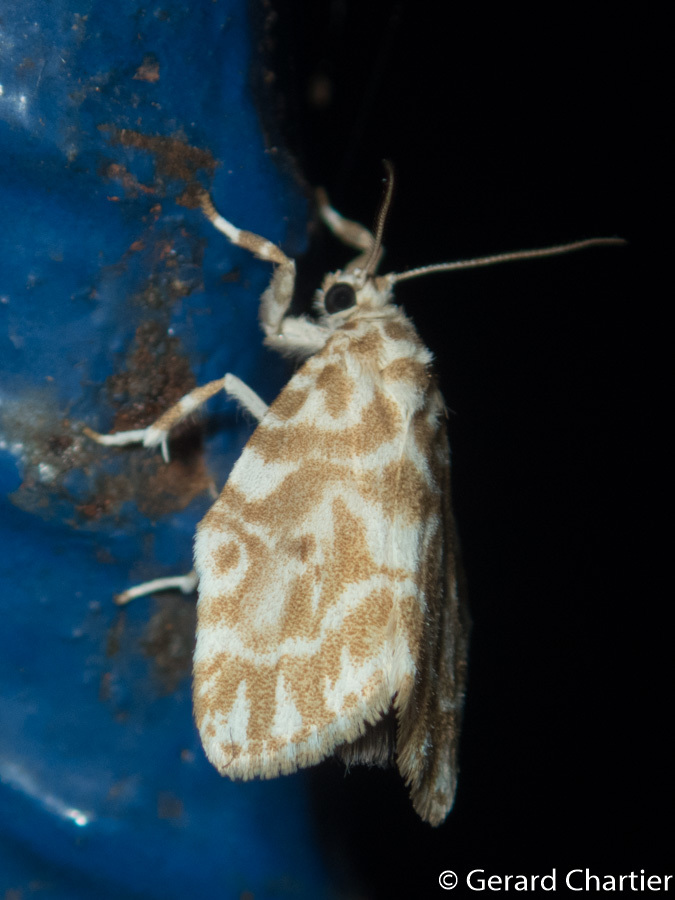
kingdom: Animalia
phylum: Arthropoda
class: Insecta
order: Lepidoptera
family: Erebidae
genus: Cabarda
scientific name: Cabarda sequens
